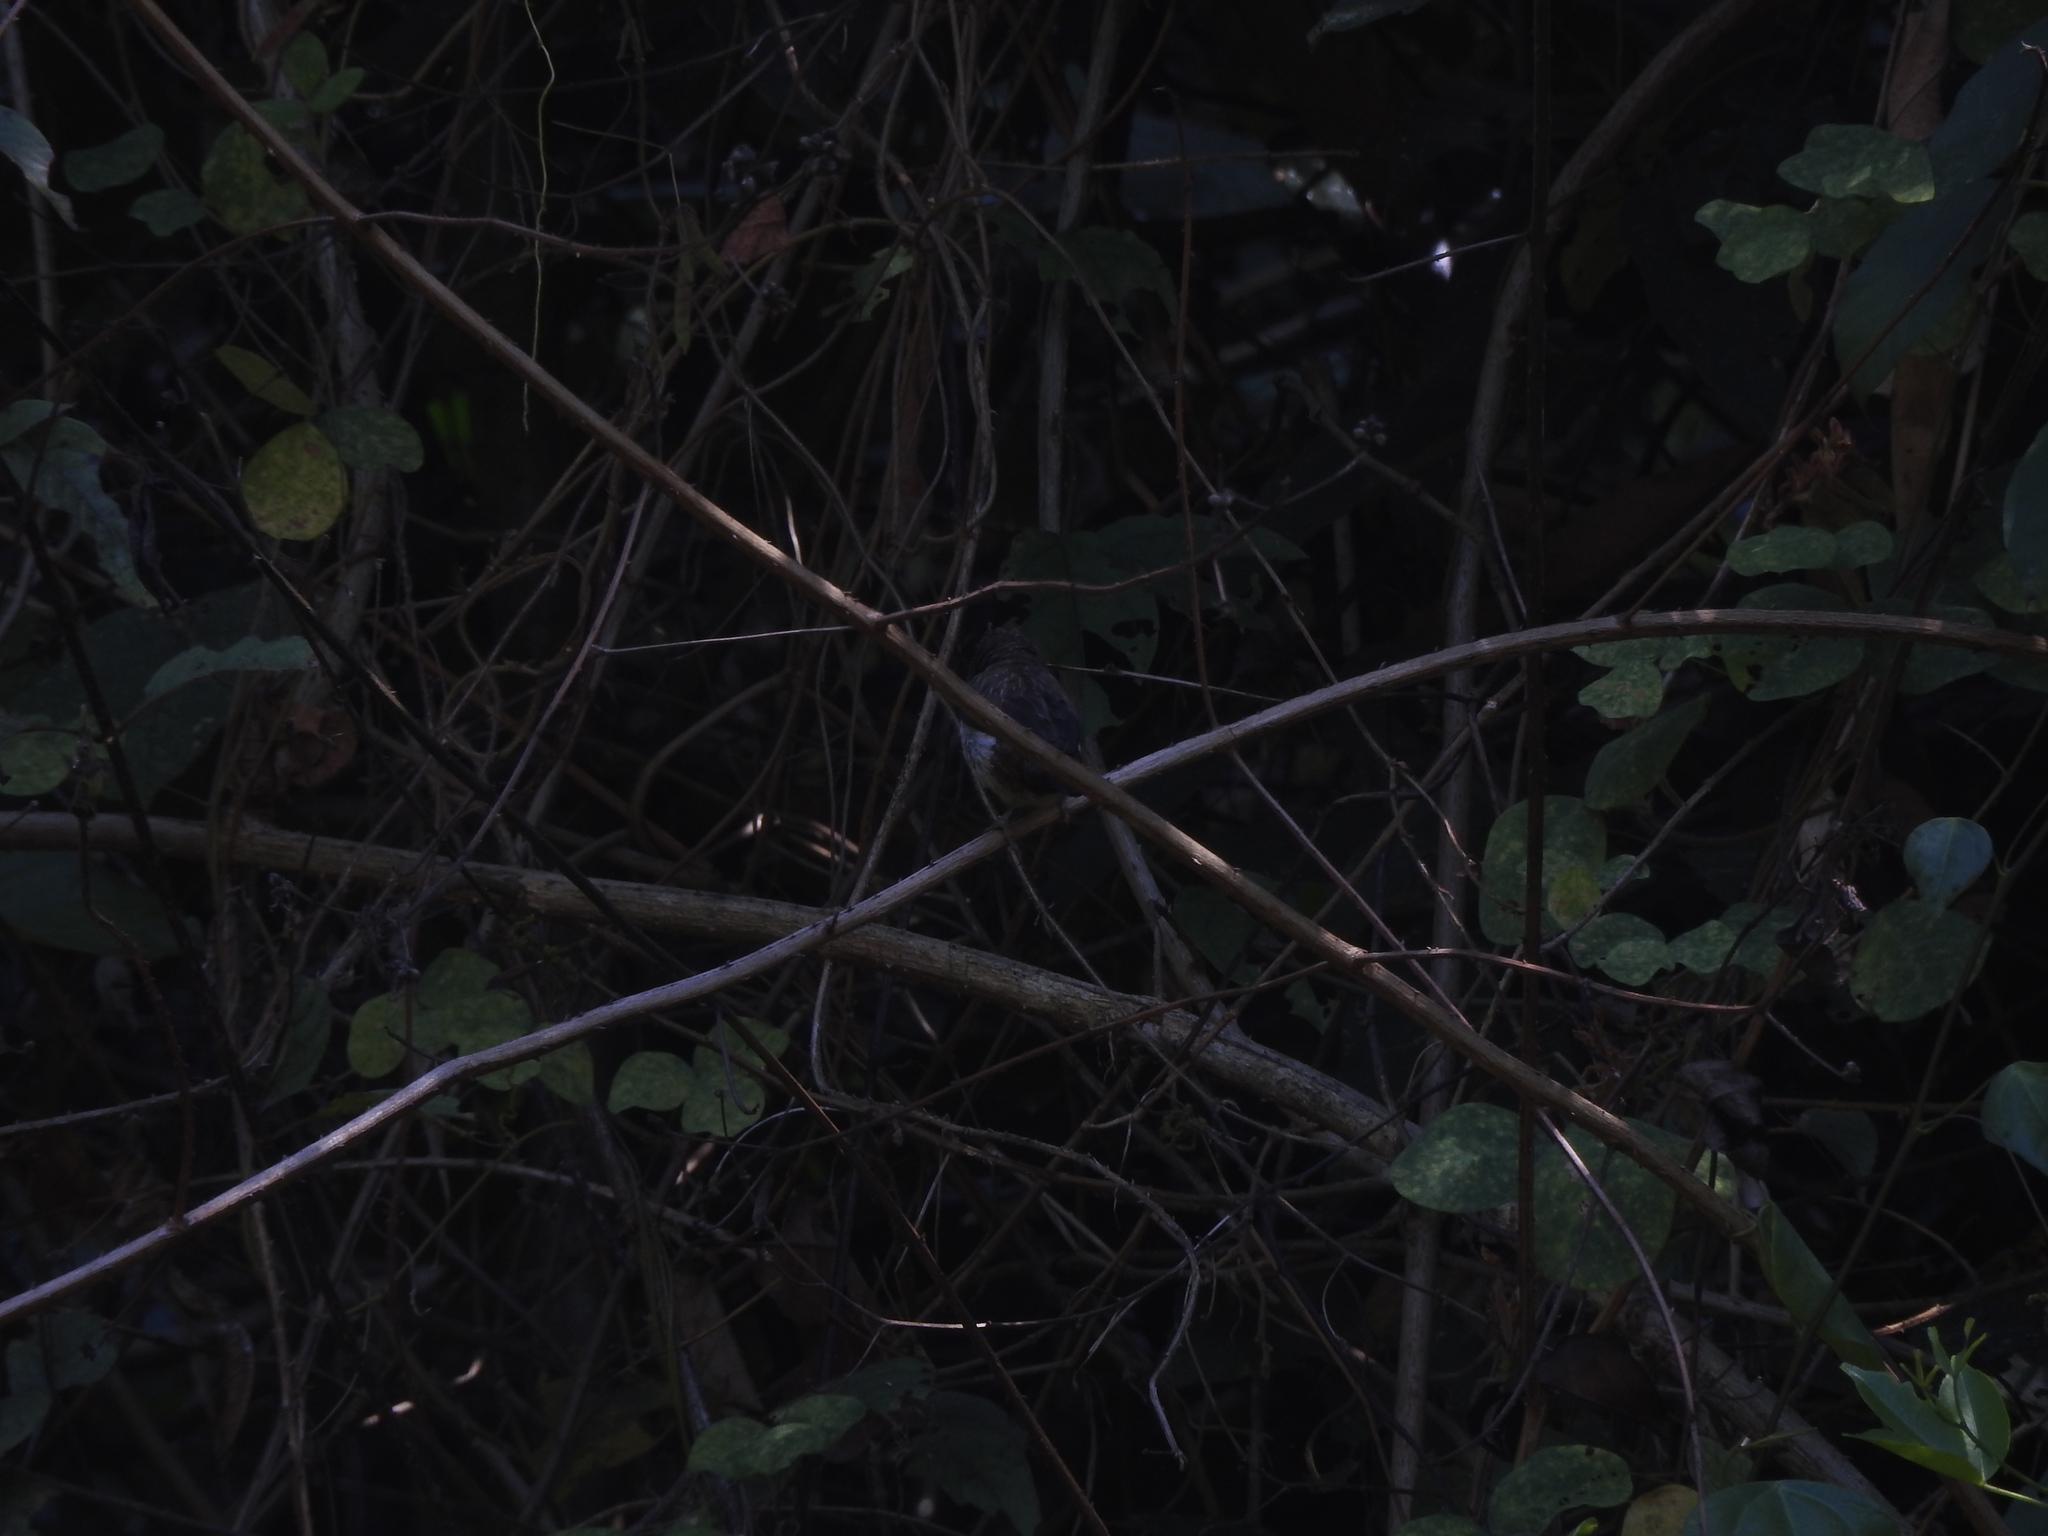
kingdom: Animalia
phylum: Chordata
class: Aves
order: Passeriformes
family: Estrildidae
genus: Lonchura
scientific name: Lonchura striata
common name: White-rumped munia
